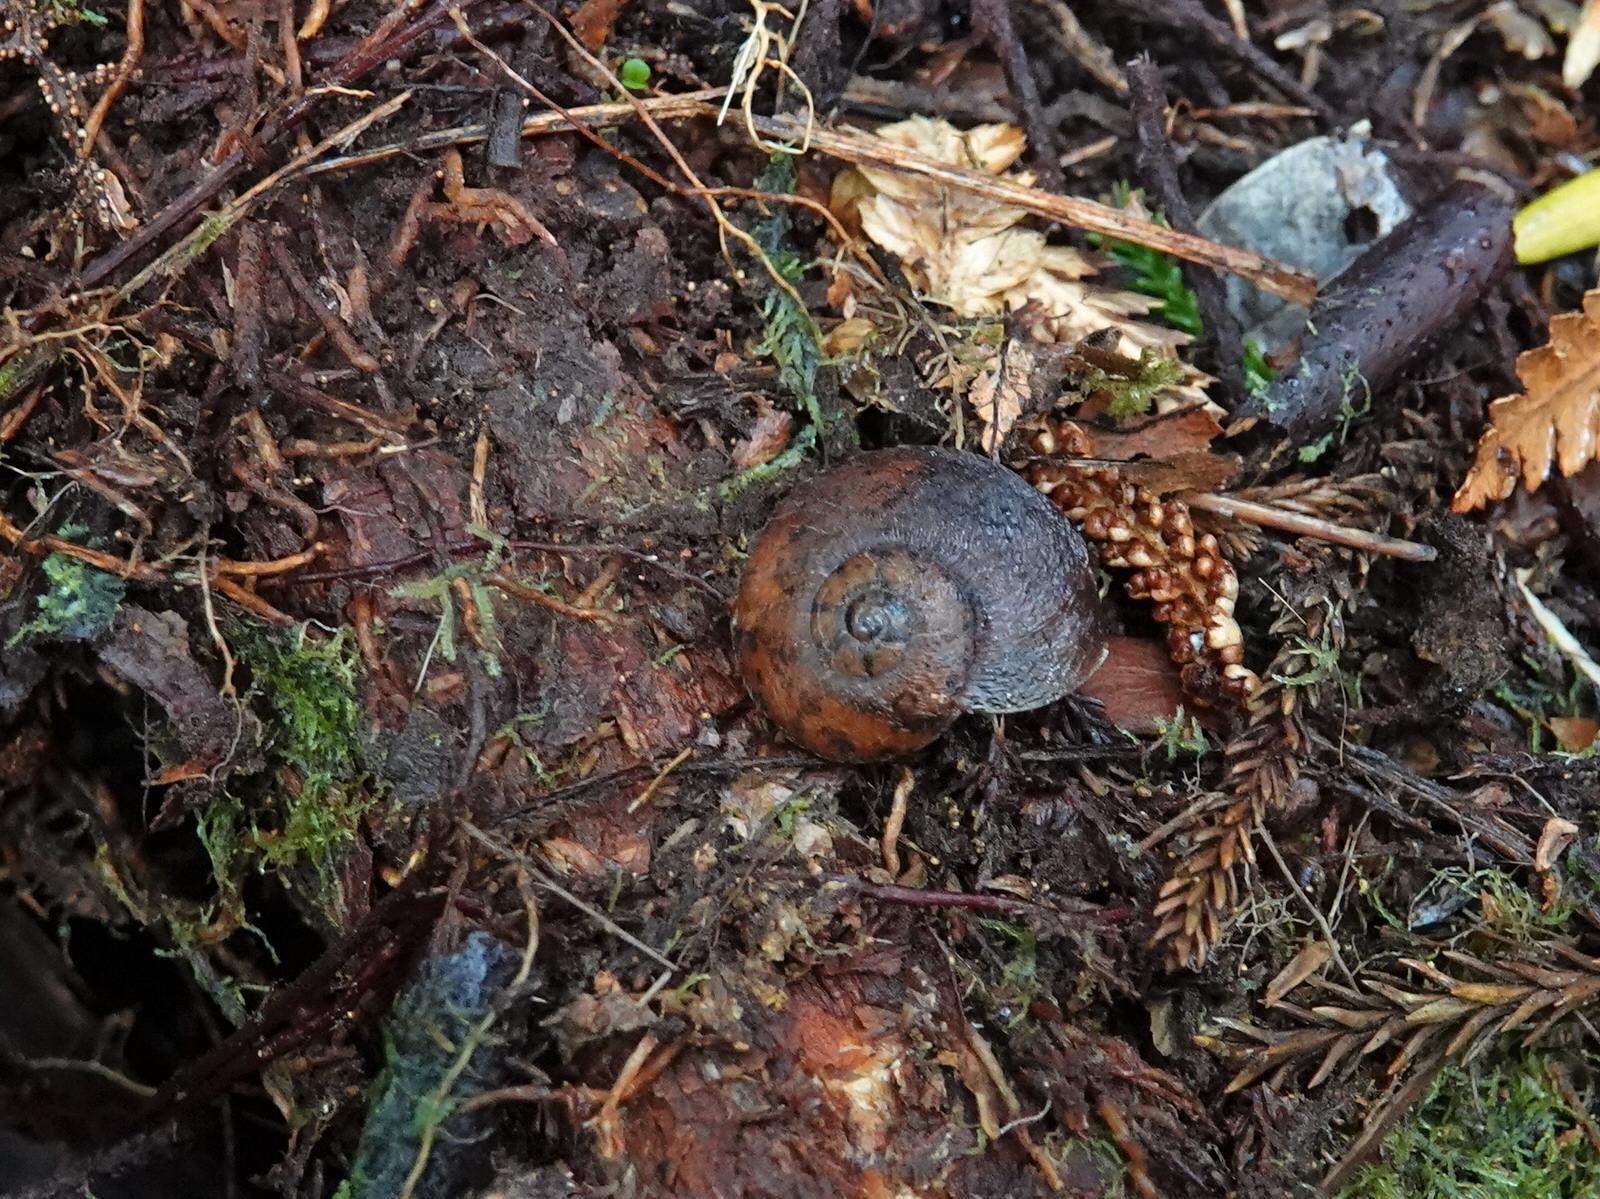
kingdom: Animalia
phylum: Mollusca
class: Gastropoda
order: Stylommatophora
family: Rhytididae
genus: Amborhytida
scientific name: Amborhytida dunniae
